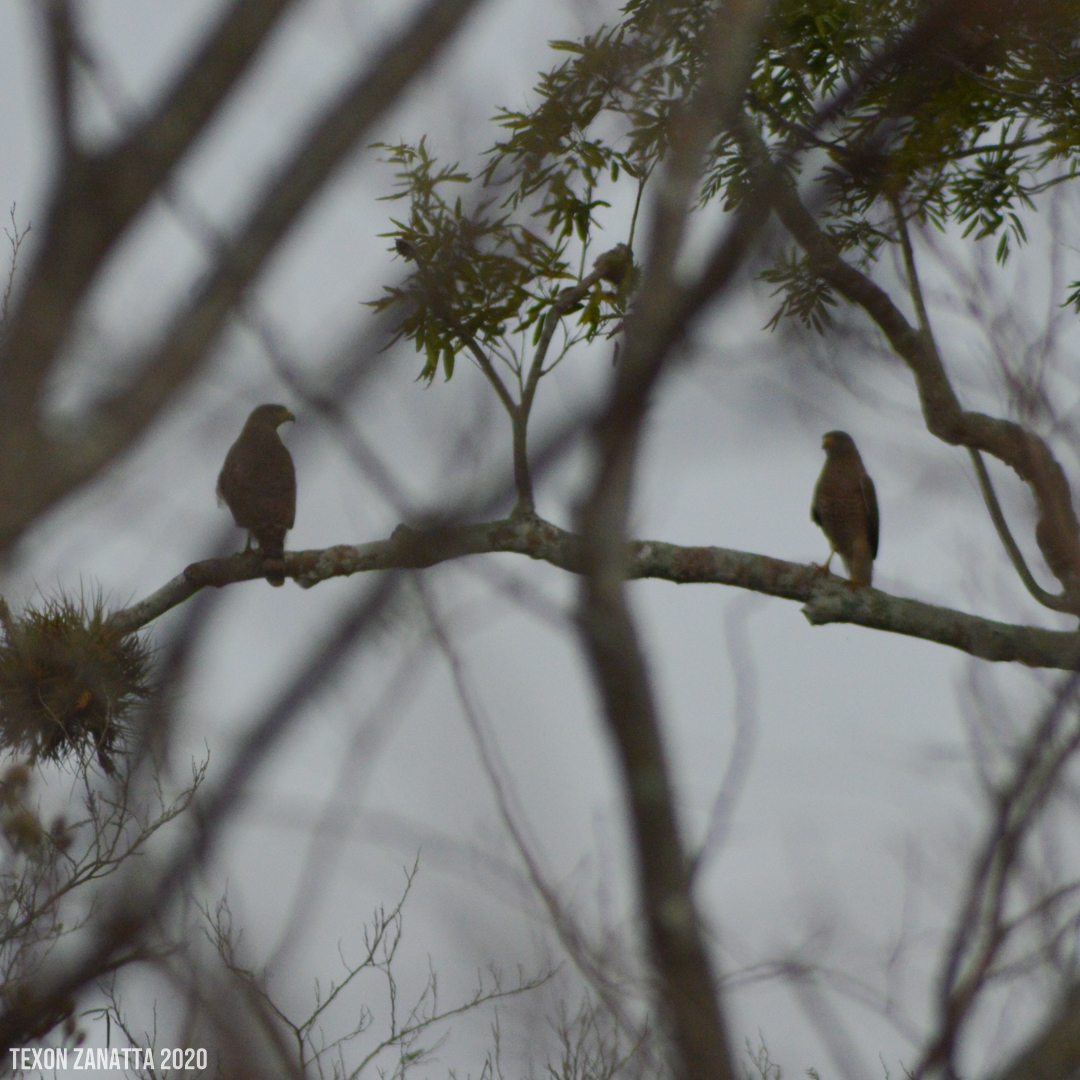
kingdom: Animalia
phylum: Chordata
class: Aves
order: Accipitriformes
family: Accipitridae
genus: Rupornis
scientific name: Rupornis magnirostris
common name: Roadside hawk
